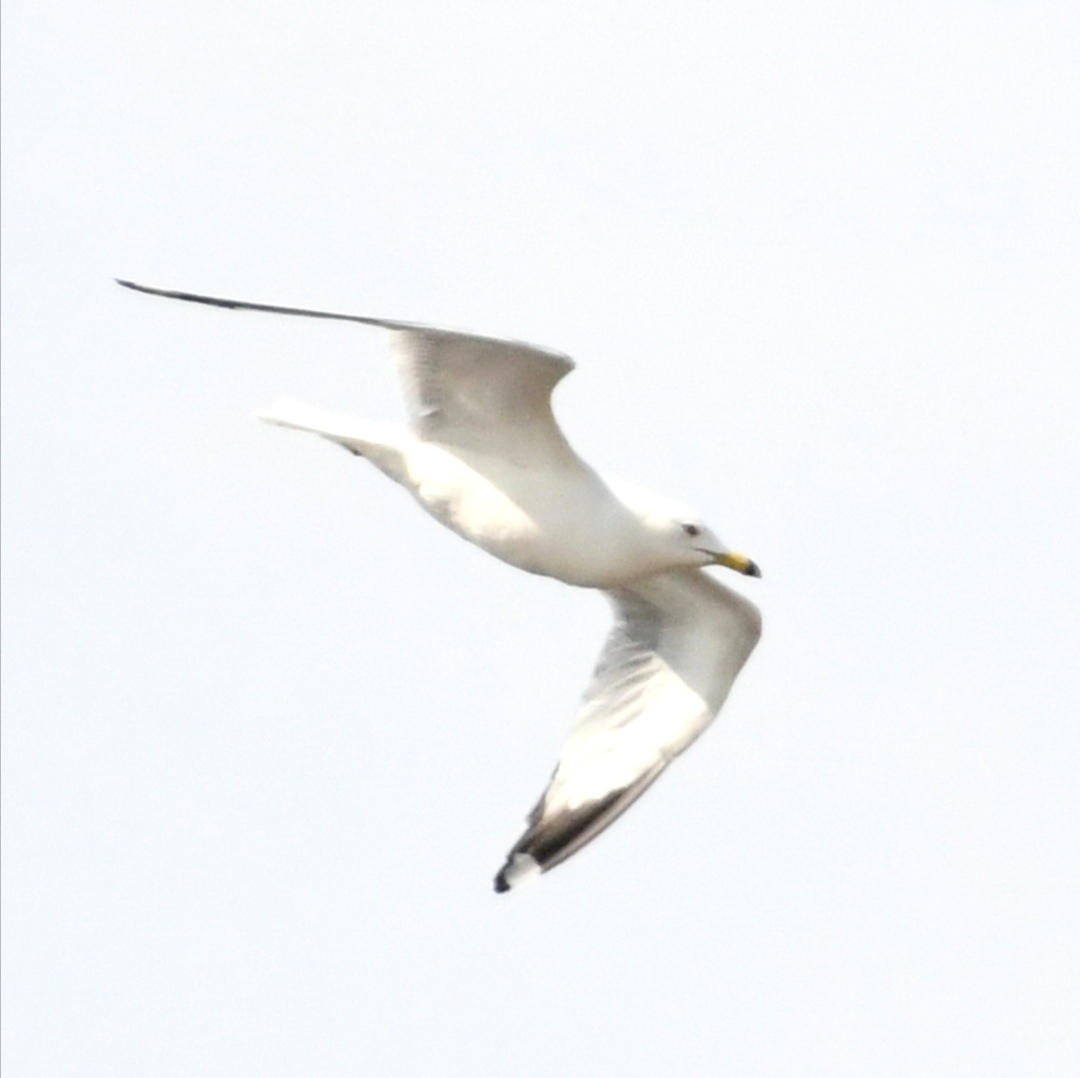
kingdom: Animalia
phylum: Chordata
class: Aves
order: Charadriiformes
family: Laridae
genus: Larus
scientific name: Larus delawarensis
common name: Ring-billed gull
